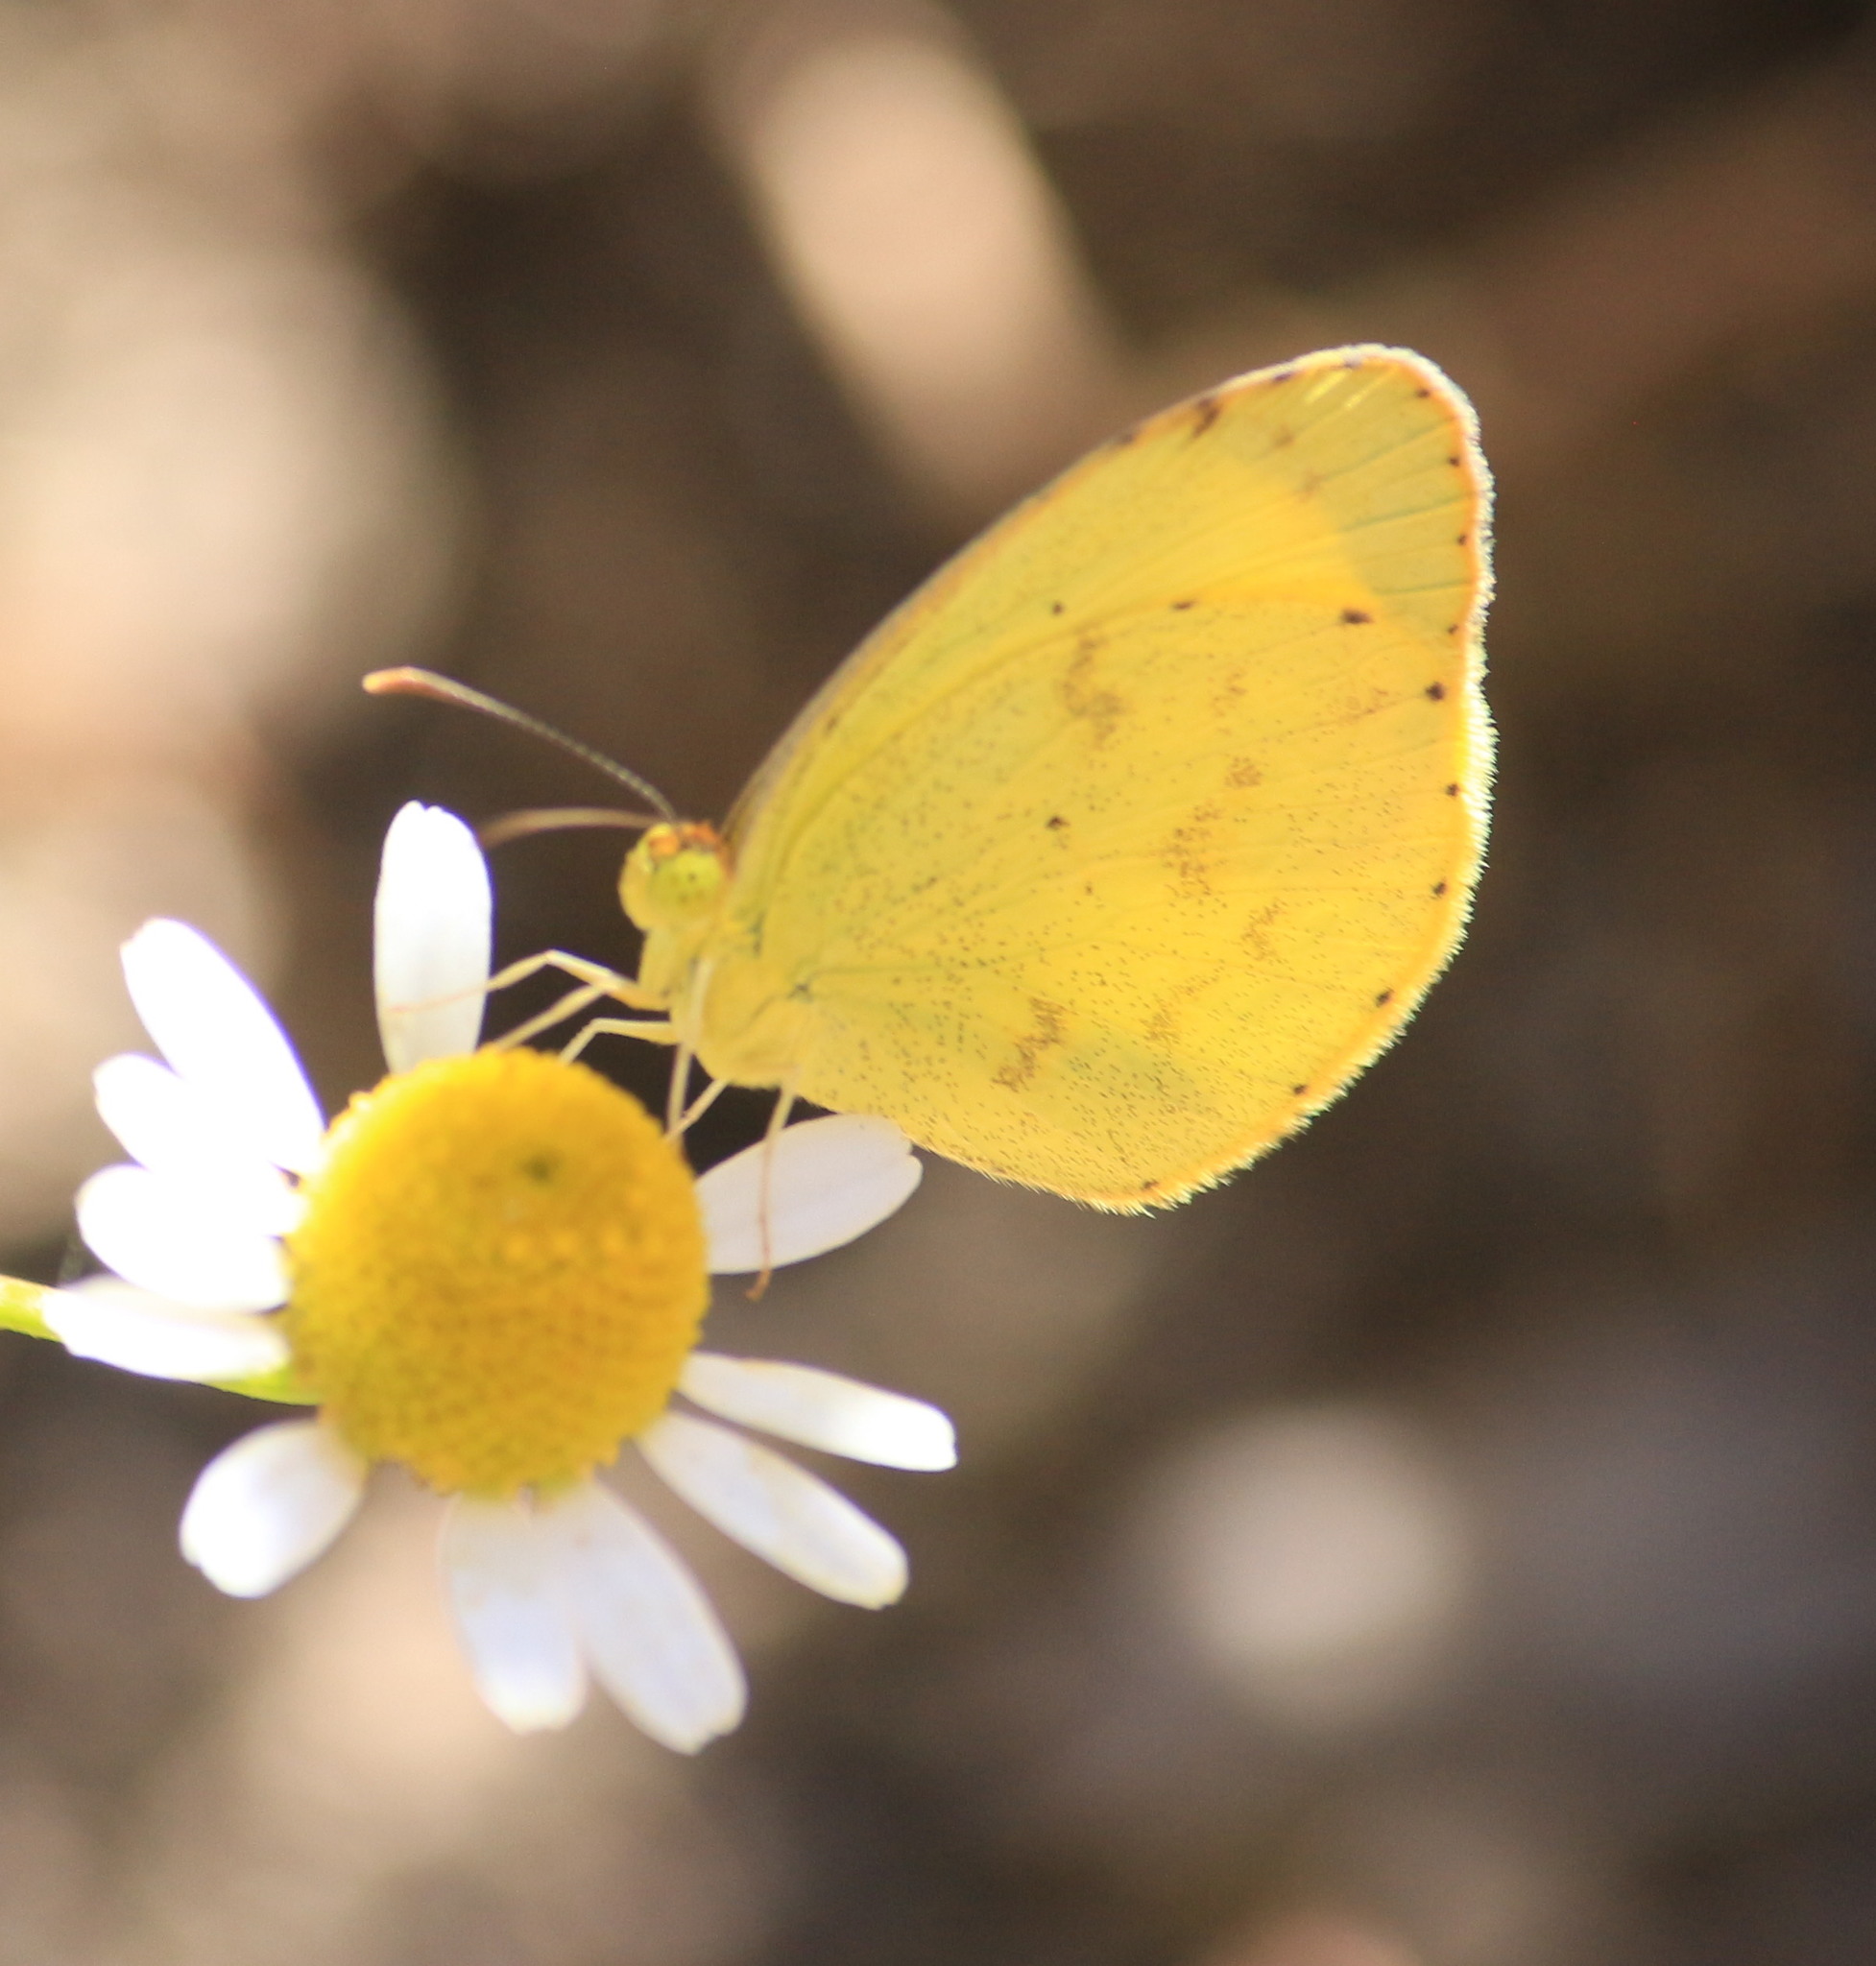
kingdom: Animalia
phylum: Arthropoda
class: Insecta
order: Lepidoptera
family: Pieridae
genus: Pyrisitia
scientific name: Pyrisitia nise
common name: Mimosa yellow
